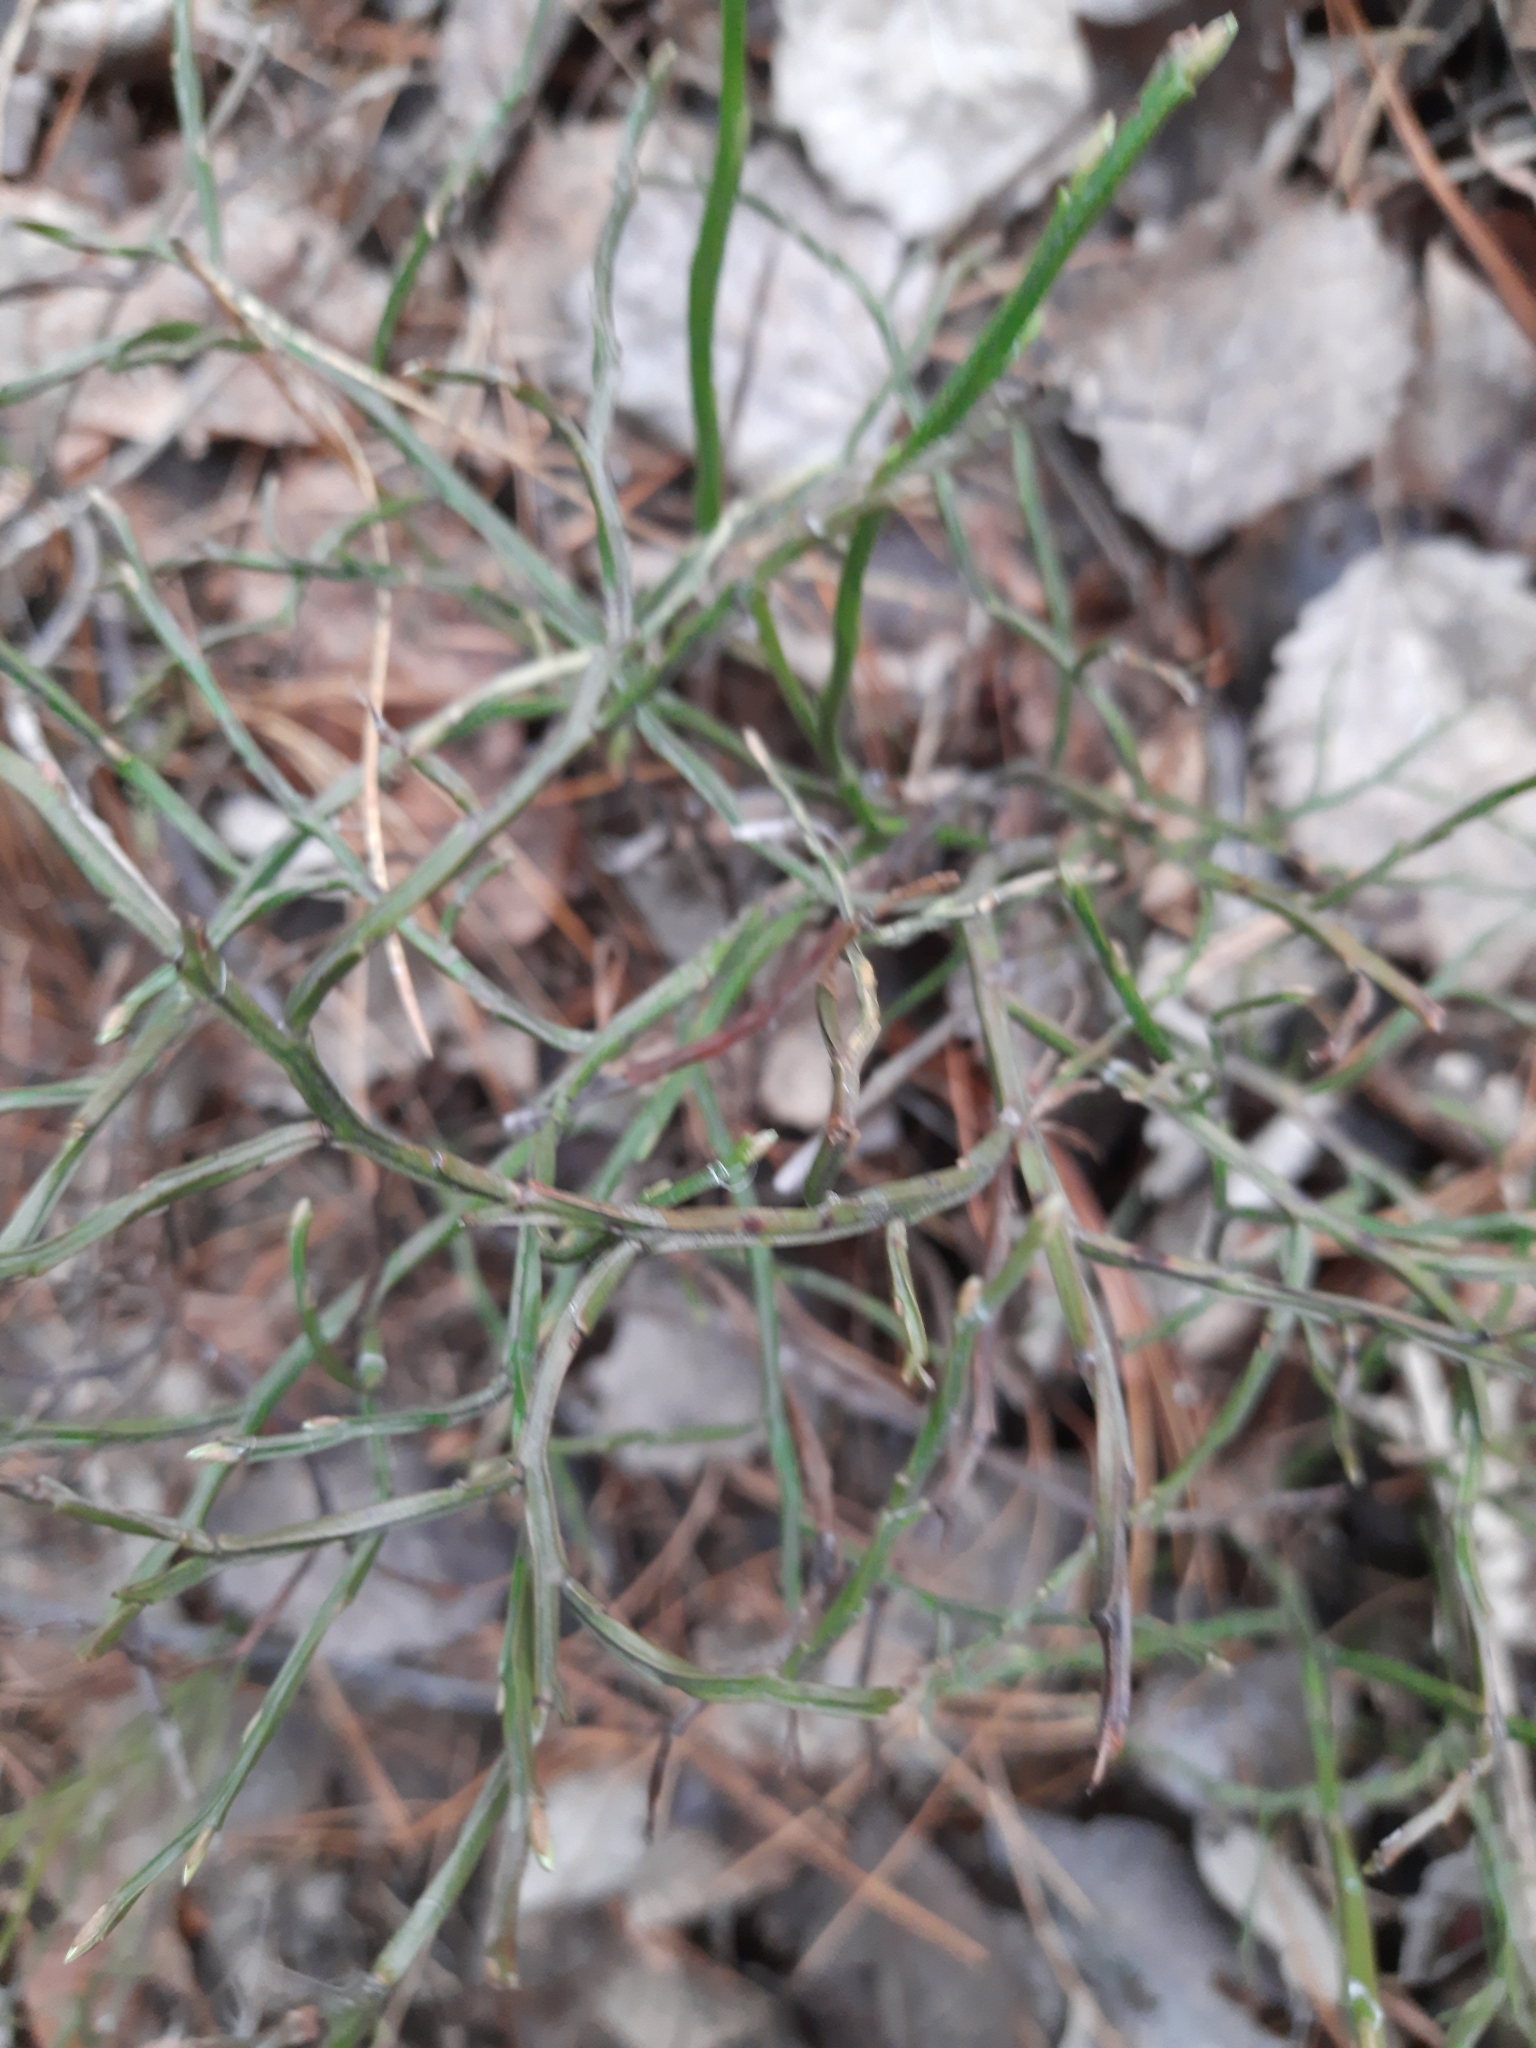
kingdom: Plantae
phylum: Tracheophyta
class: Magnoliopsida
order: Ericales
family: Ericaceae
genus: Vaccinium
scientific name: Vaccinium myrtillus
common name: Bilberry
